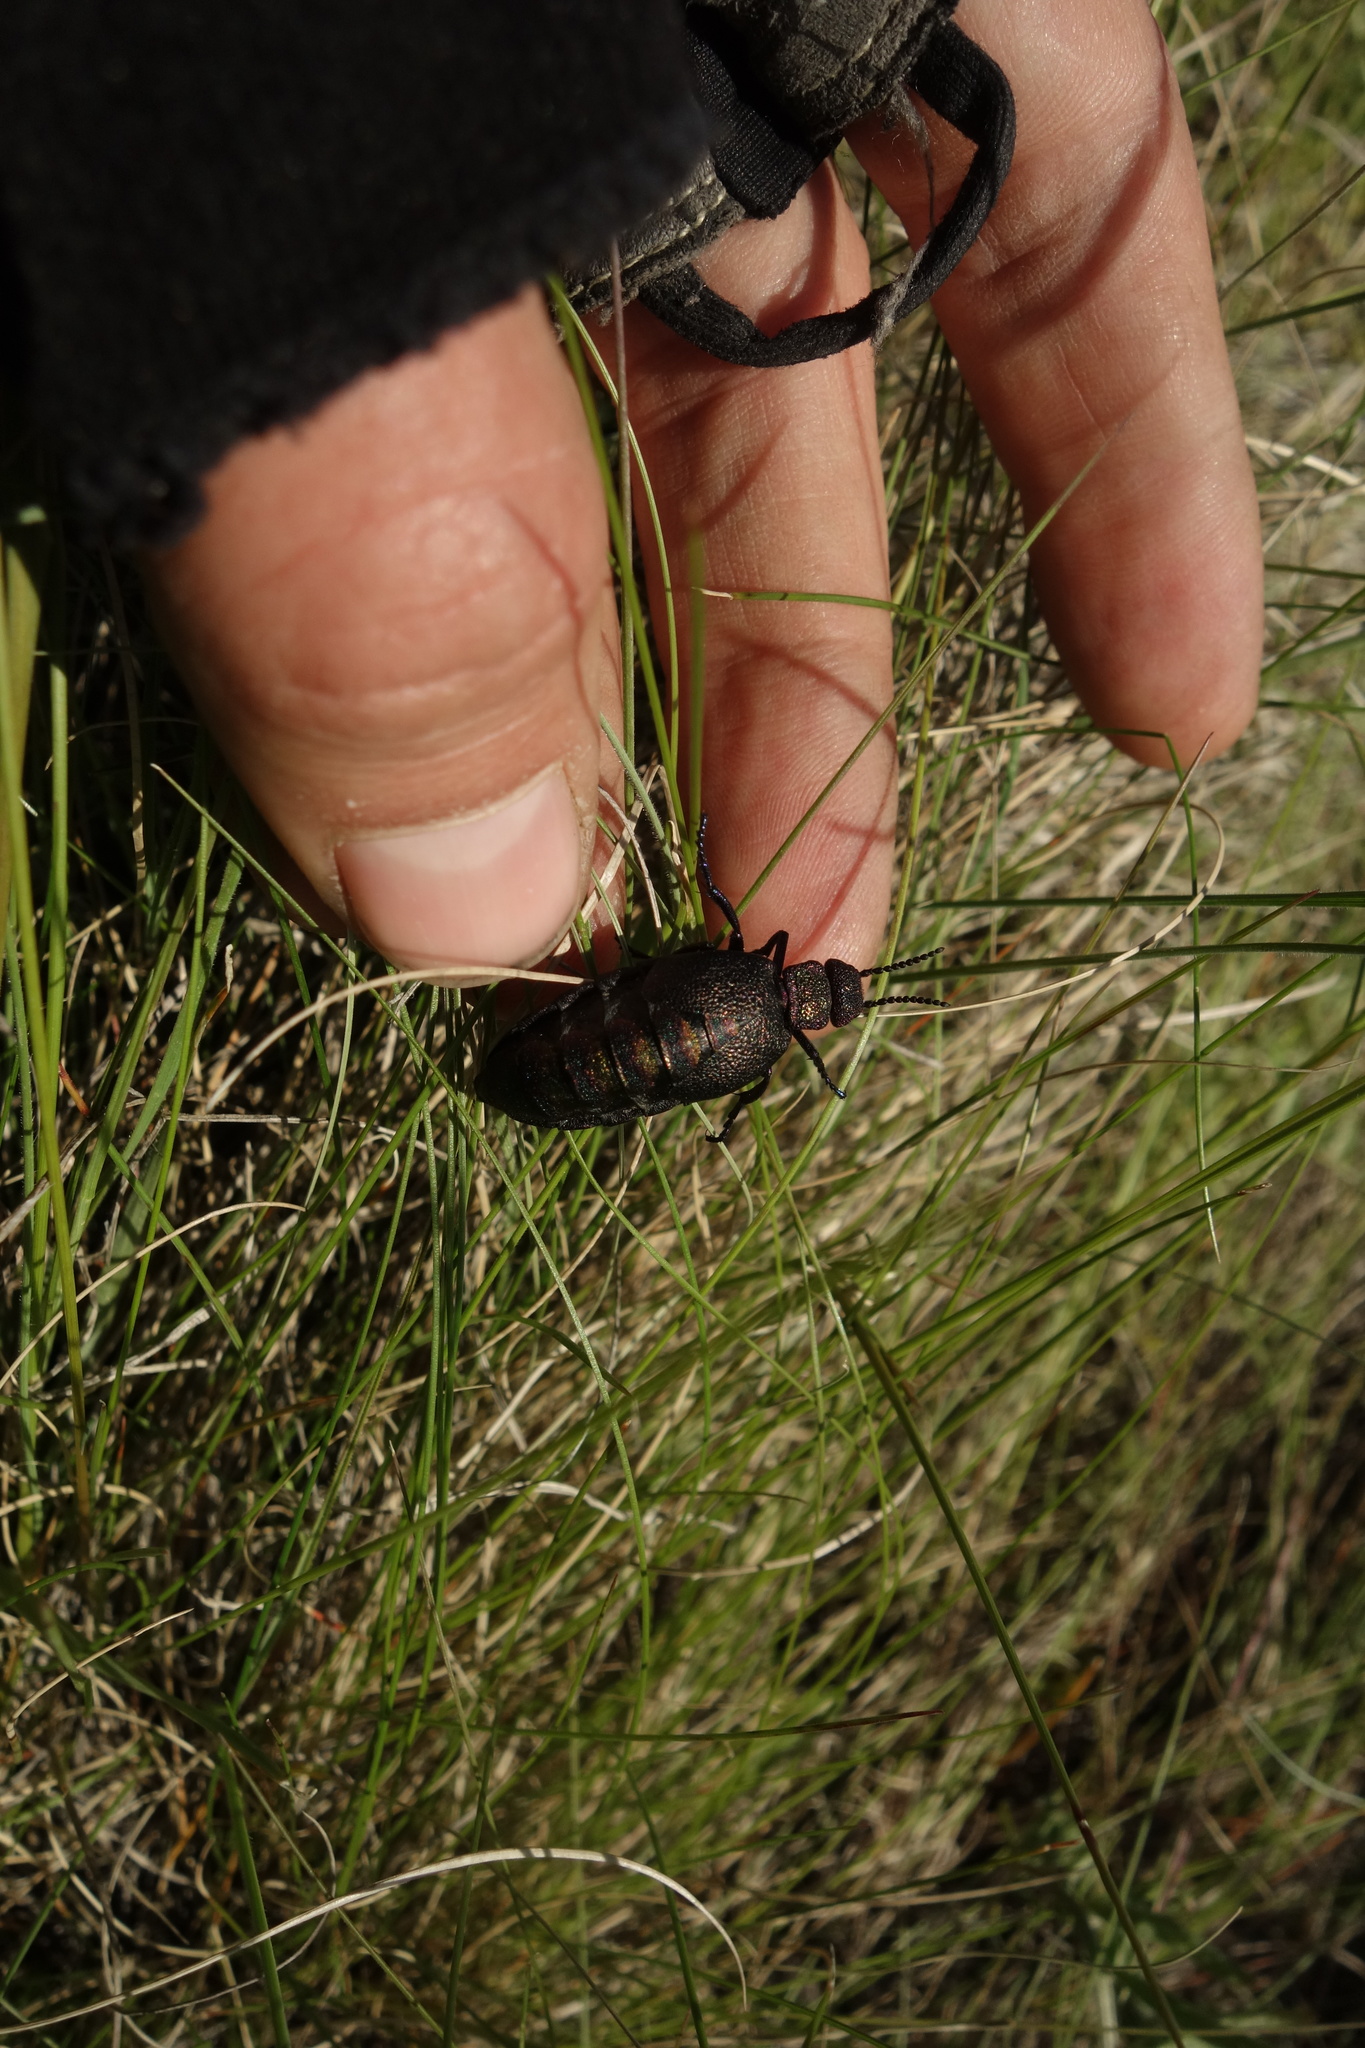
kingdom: Animalia
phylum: Arthropoda
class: Insecta
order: Coleoptera
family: Meloidae
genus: Meloe
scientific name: Meloe variegatus
